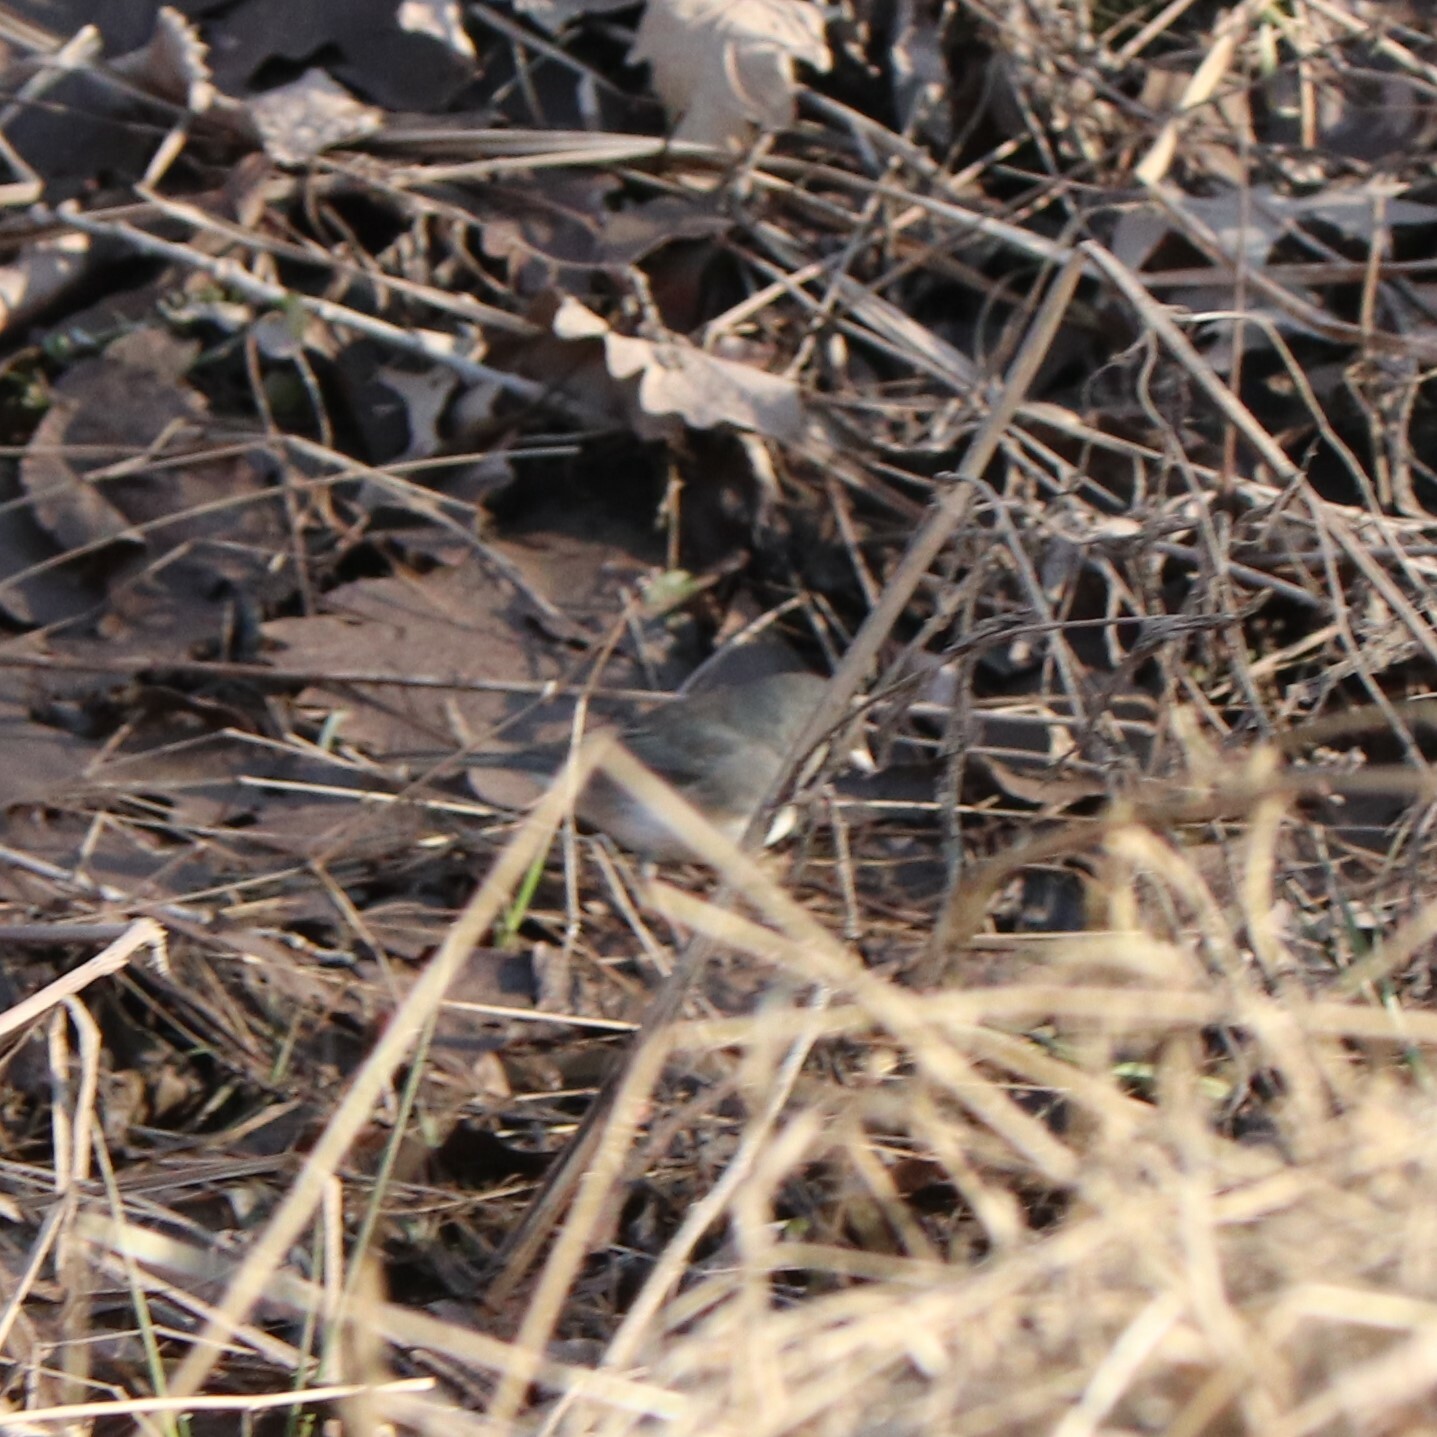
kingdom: Animalia
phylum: Chordata
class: Aves
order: Passeriformes
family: Passerellidae
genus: Junco
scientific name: Junco hyemalis
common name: Dark-eyed junco
